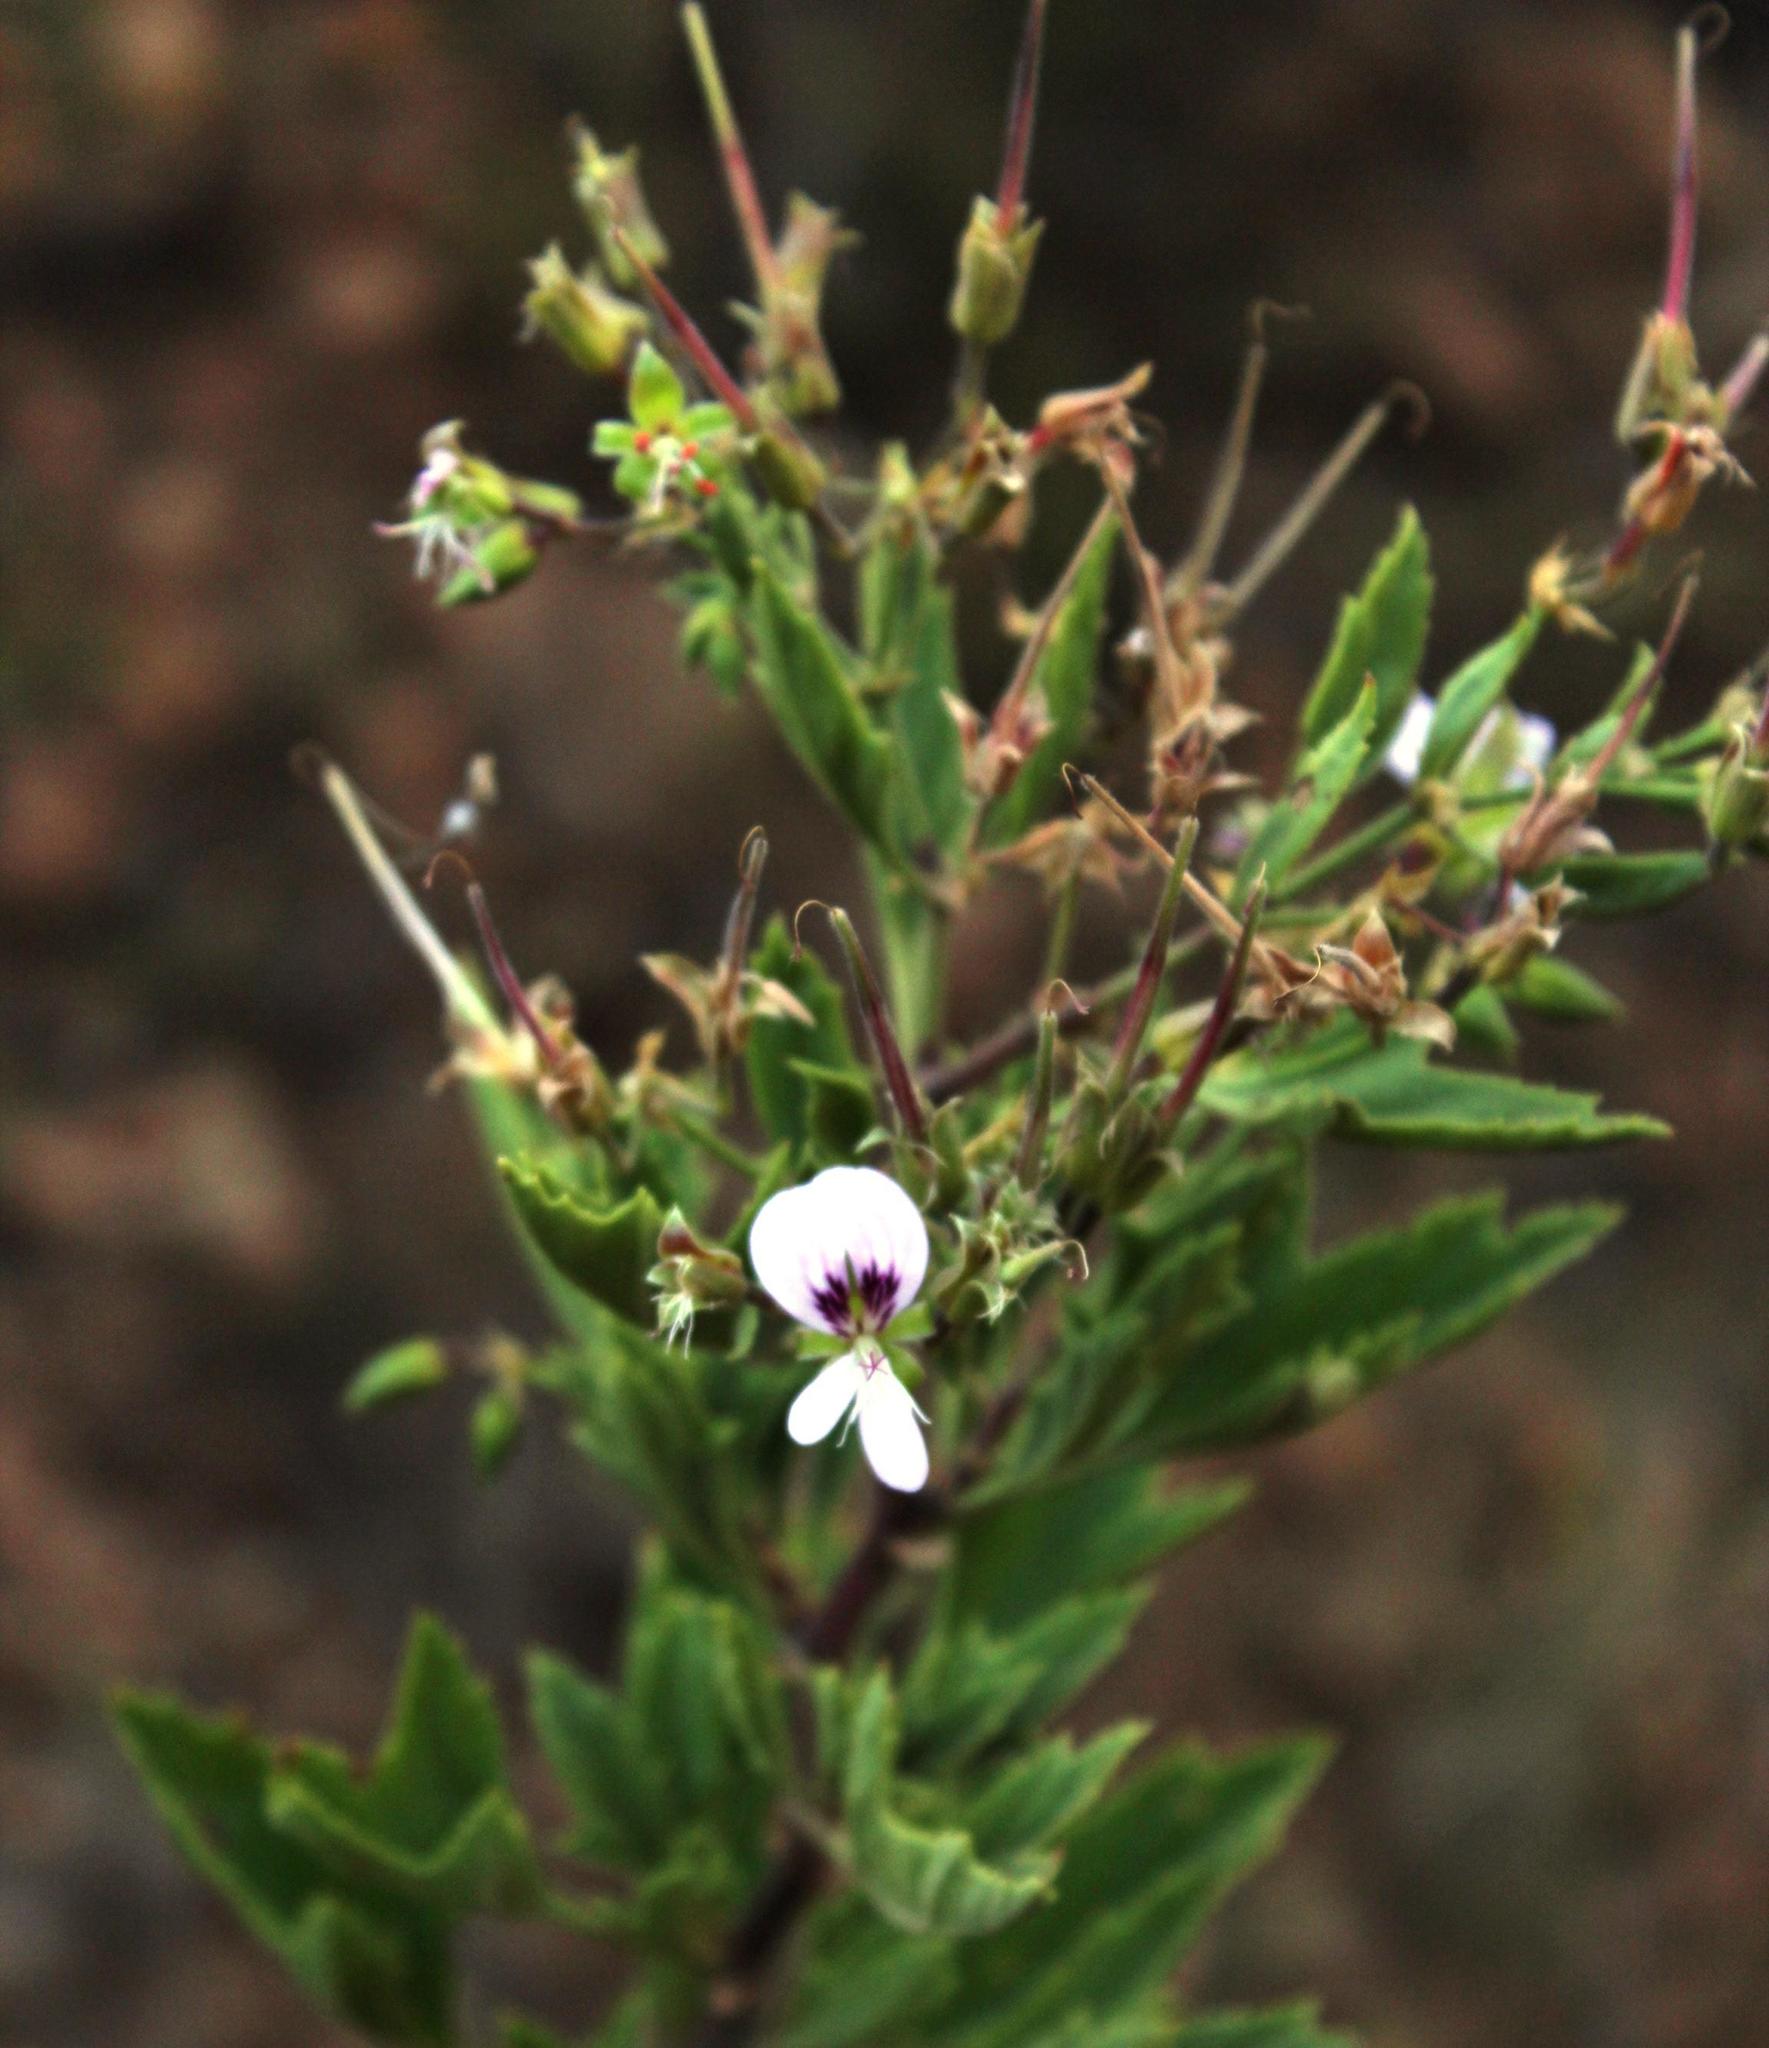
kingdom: Plantae
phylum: Tracheophyta
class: Magnoliopsida
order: Geraniales
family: Geraniaceae
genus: Pelargonium
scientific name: Pelargonium scabrum
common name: Apricot geranium
